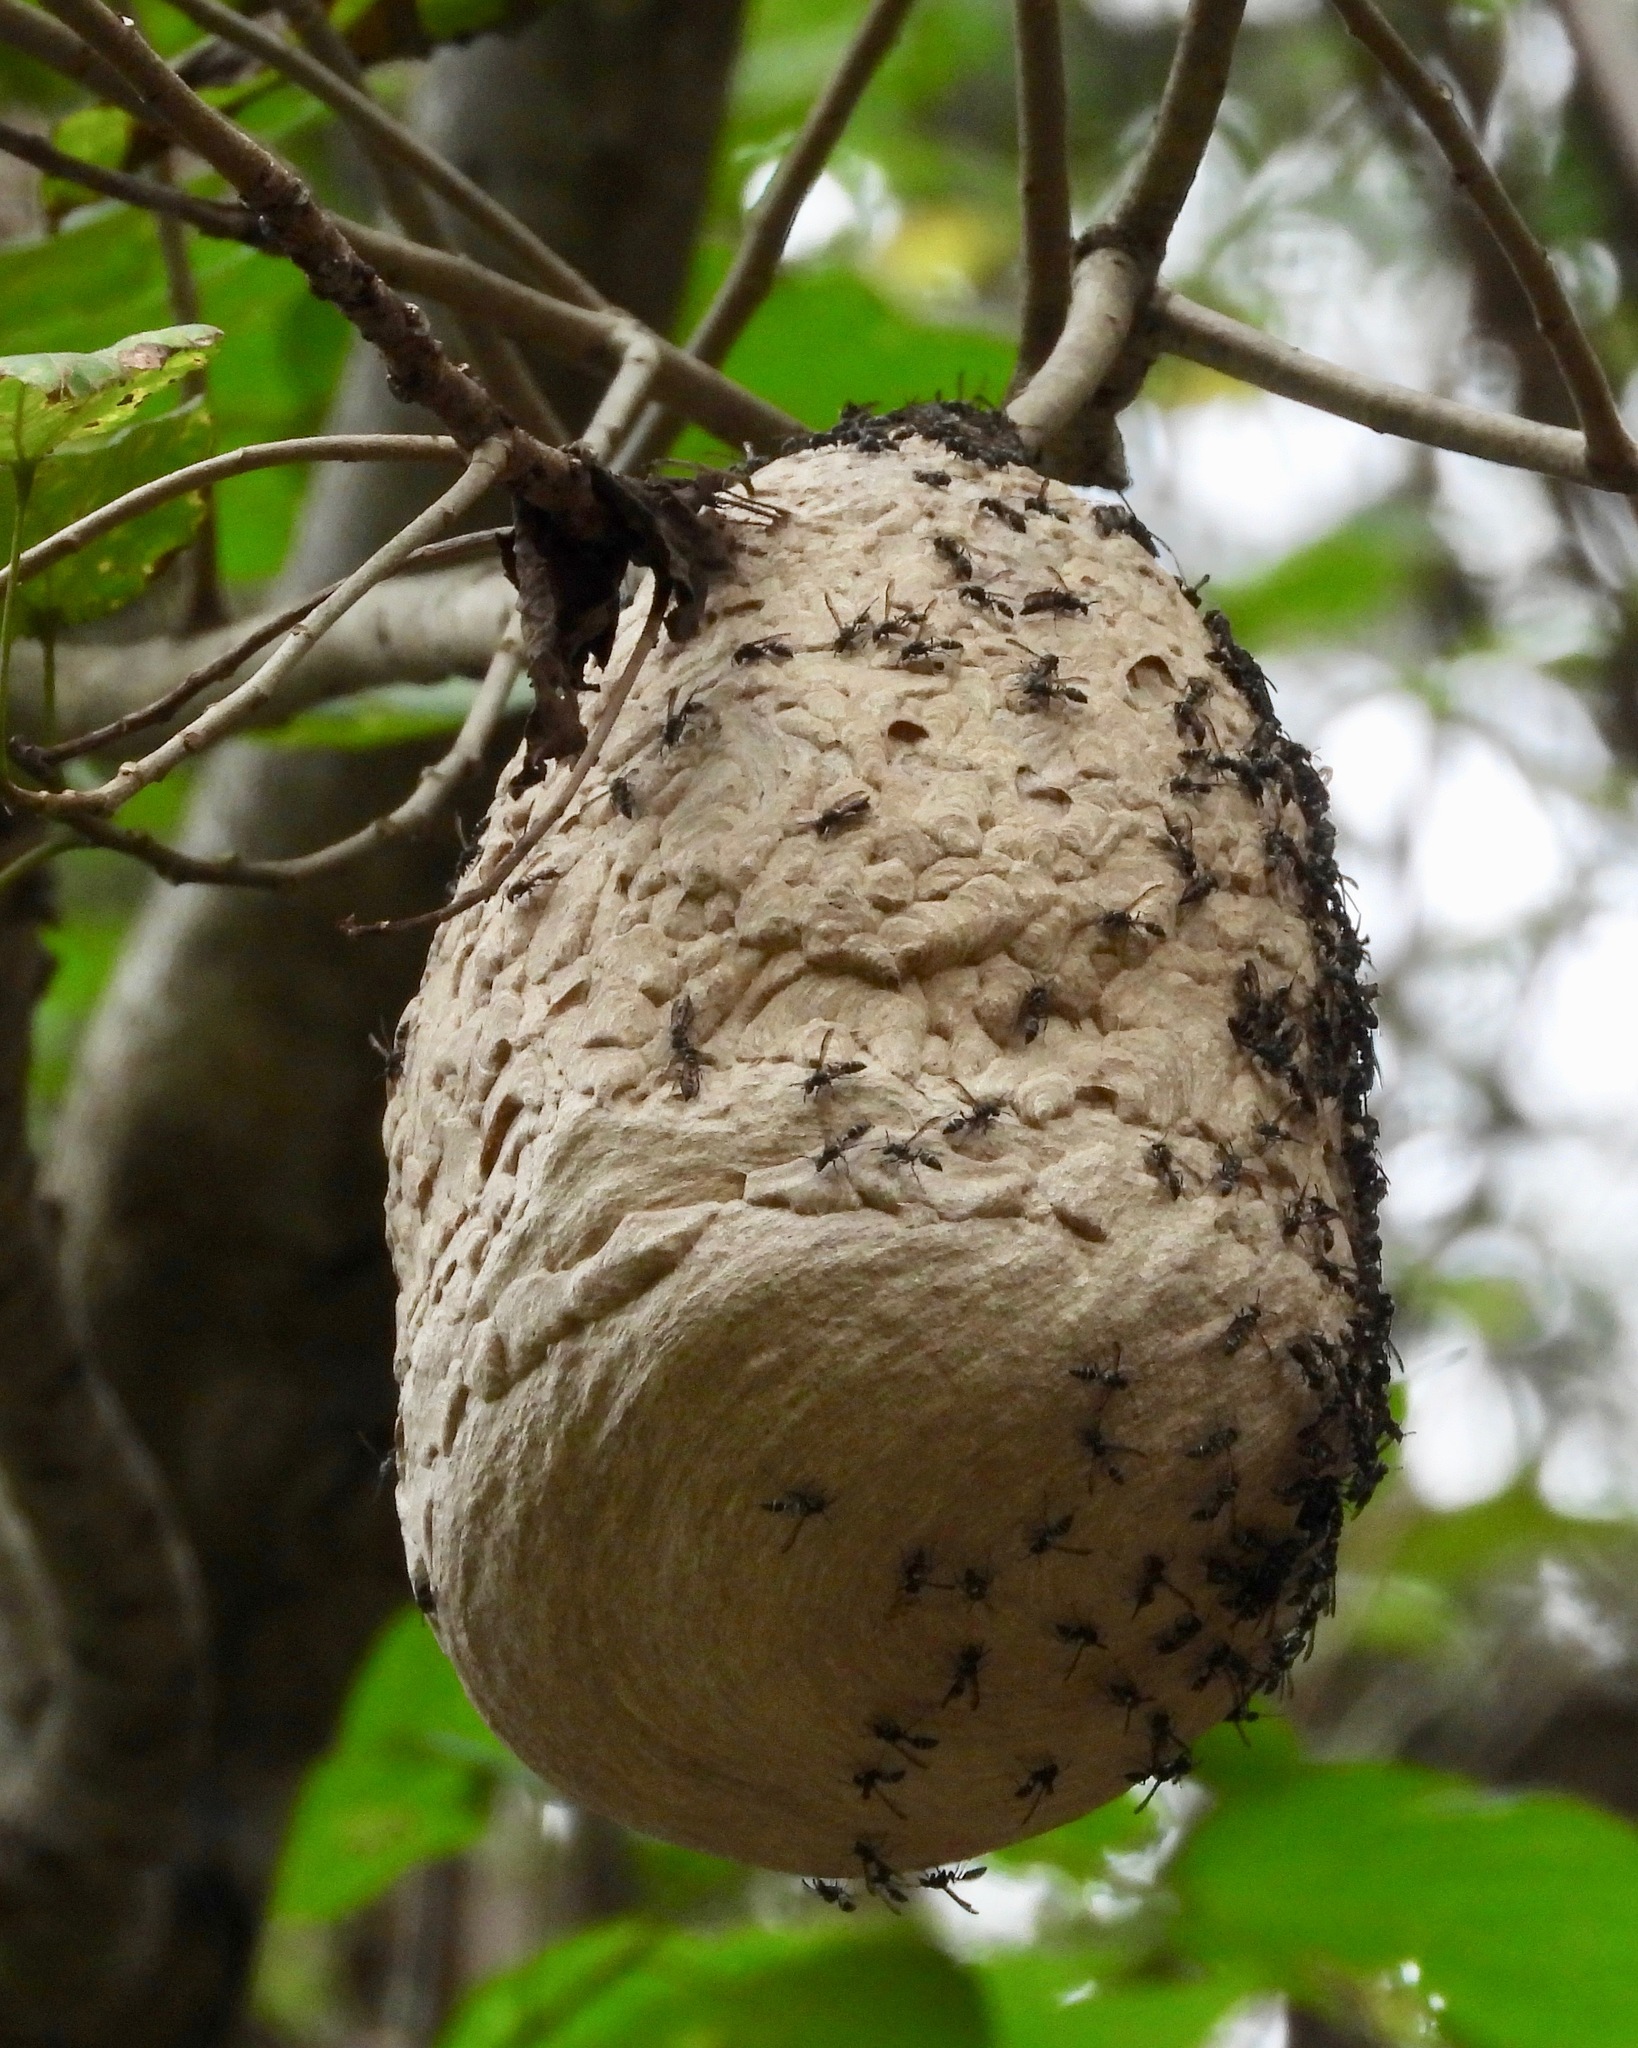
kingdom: Animalia
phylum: Arthropoda
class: Insecta
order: Hymenoptera
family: Eumenidae
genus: Polybia
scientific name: Polybia occidentalis
